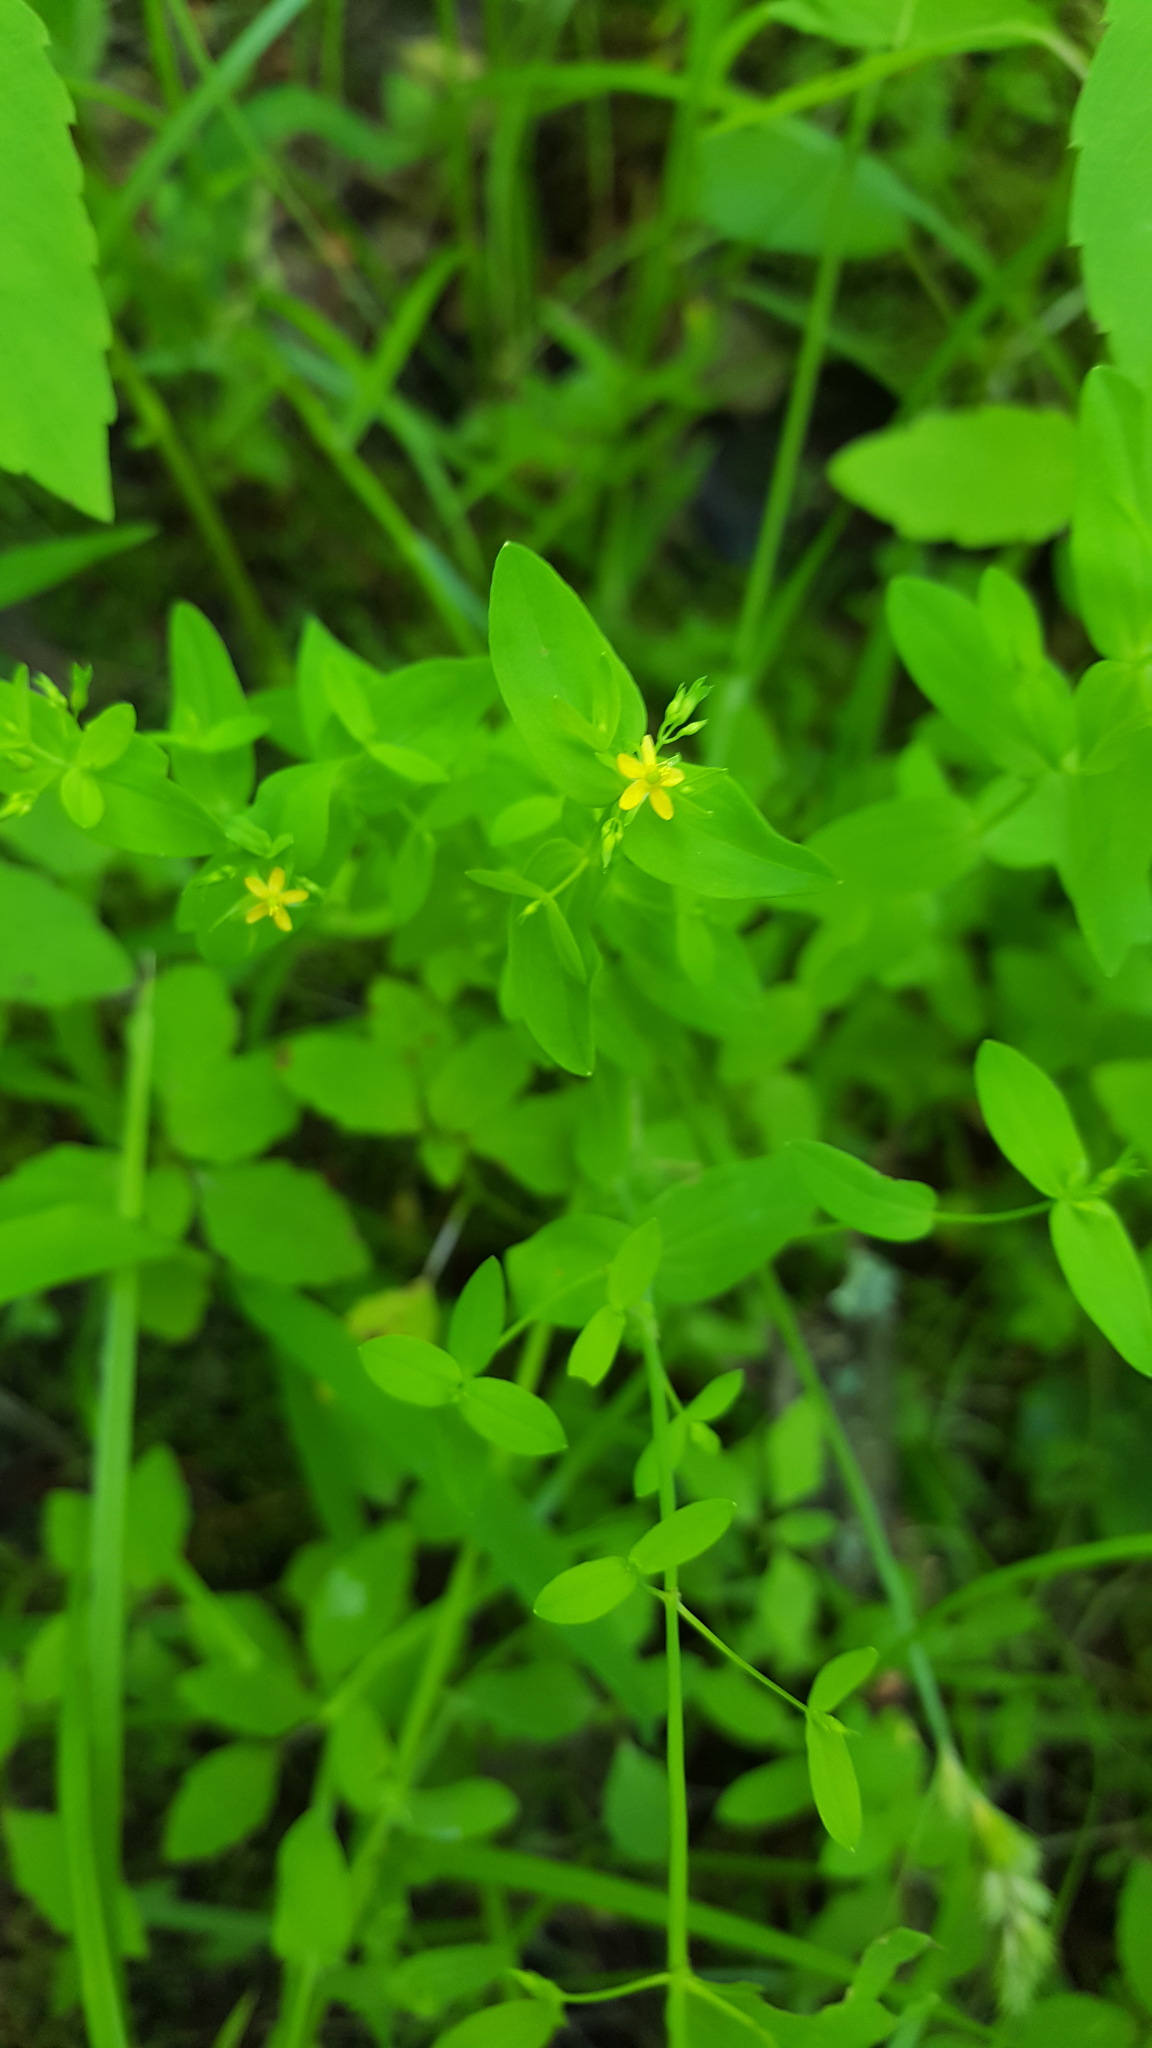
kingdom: Plantae
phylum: Tracheophyta
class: Magnoliopsida
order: Malpighiales
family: Hypericaceae
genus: Hypericum
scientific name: Hypericum mutilum
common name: Dwarf st. john's-wort
